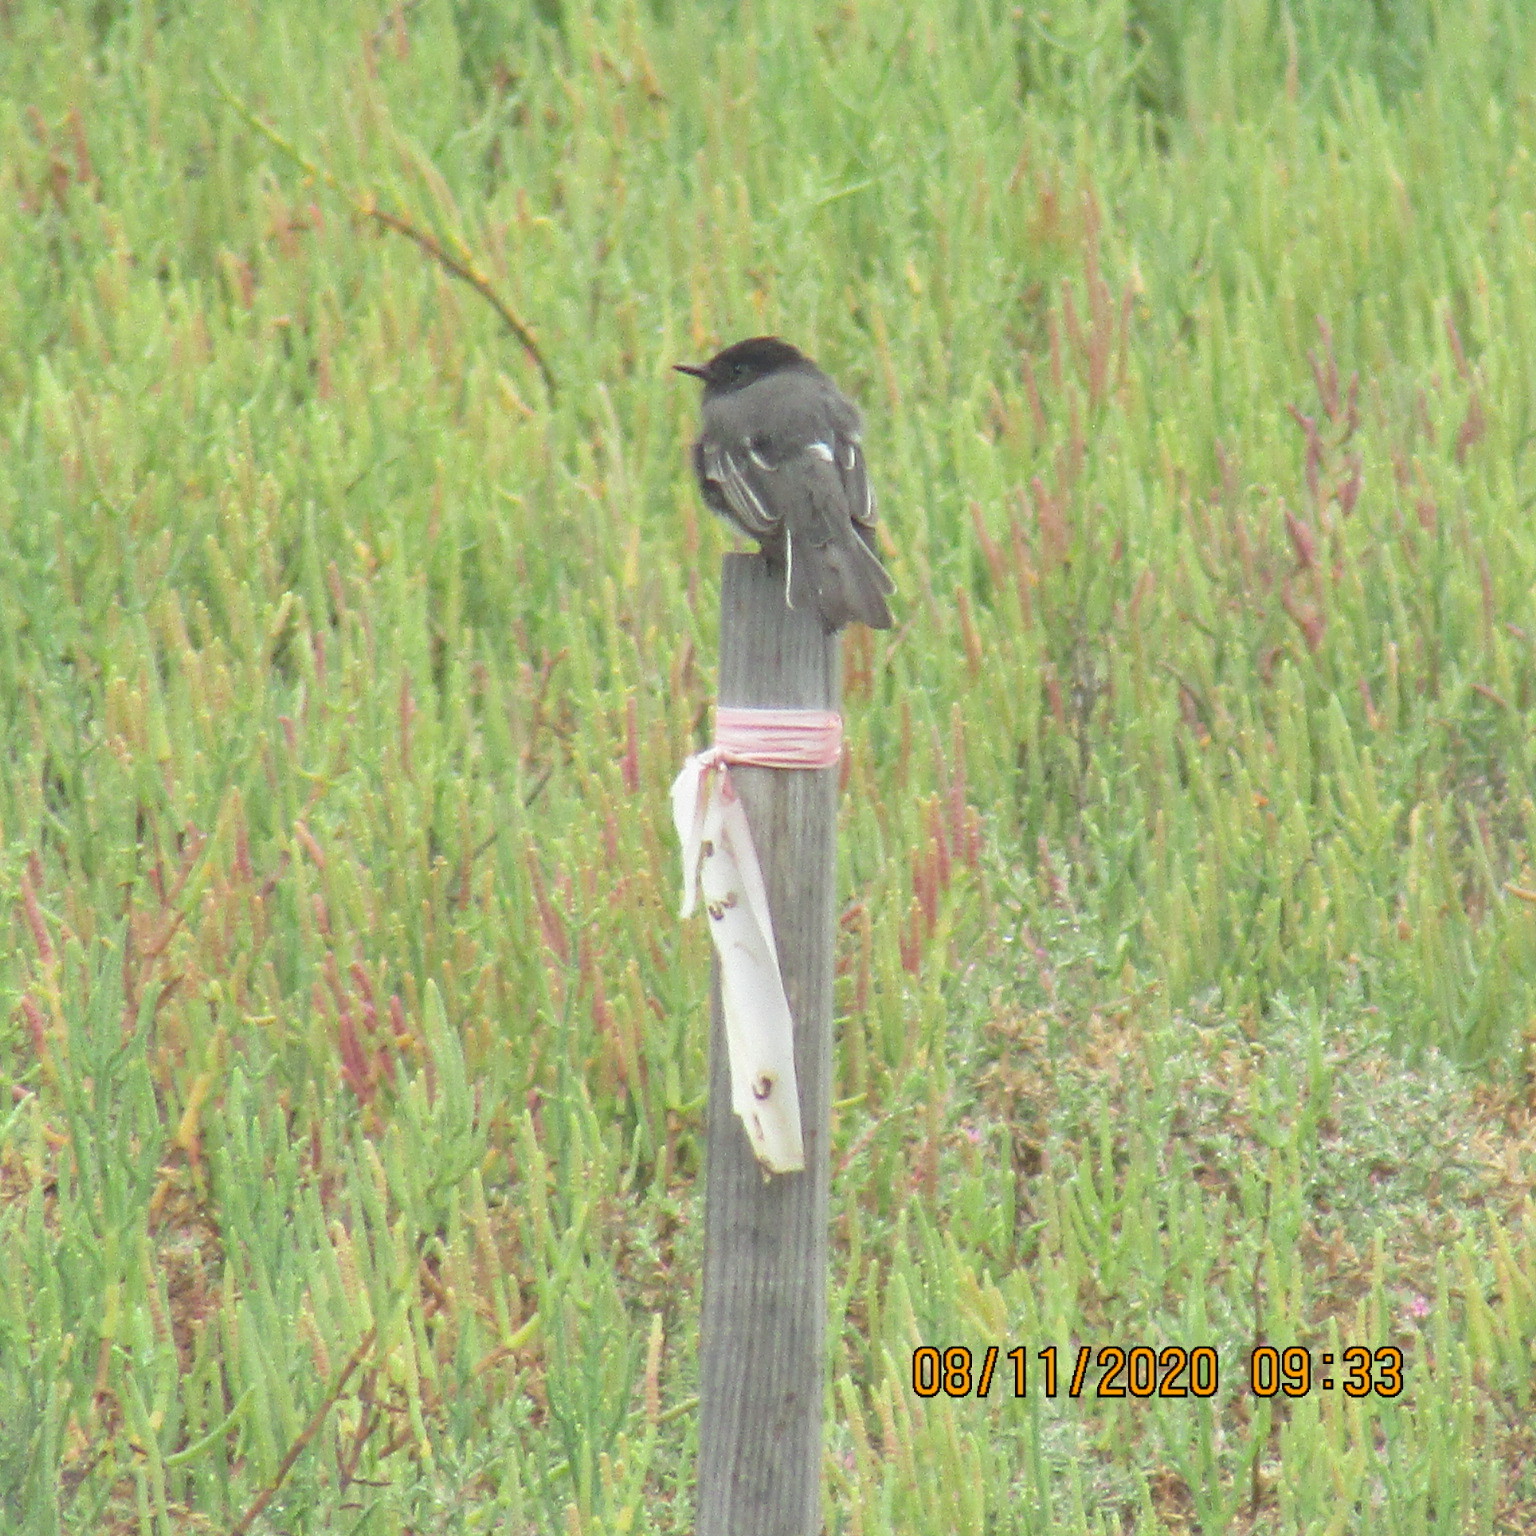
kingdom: Animalia
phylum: Chordata
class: Aves
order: Passeriformes
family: Tyrannidae
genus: Sayornis
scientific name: Sayornis nigricans
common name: Black phoebe
